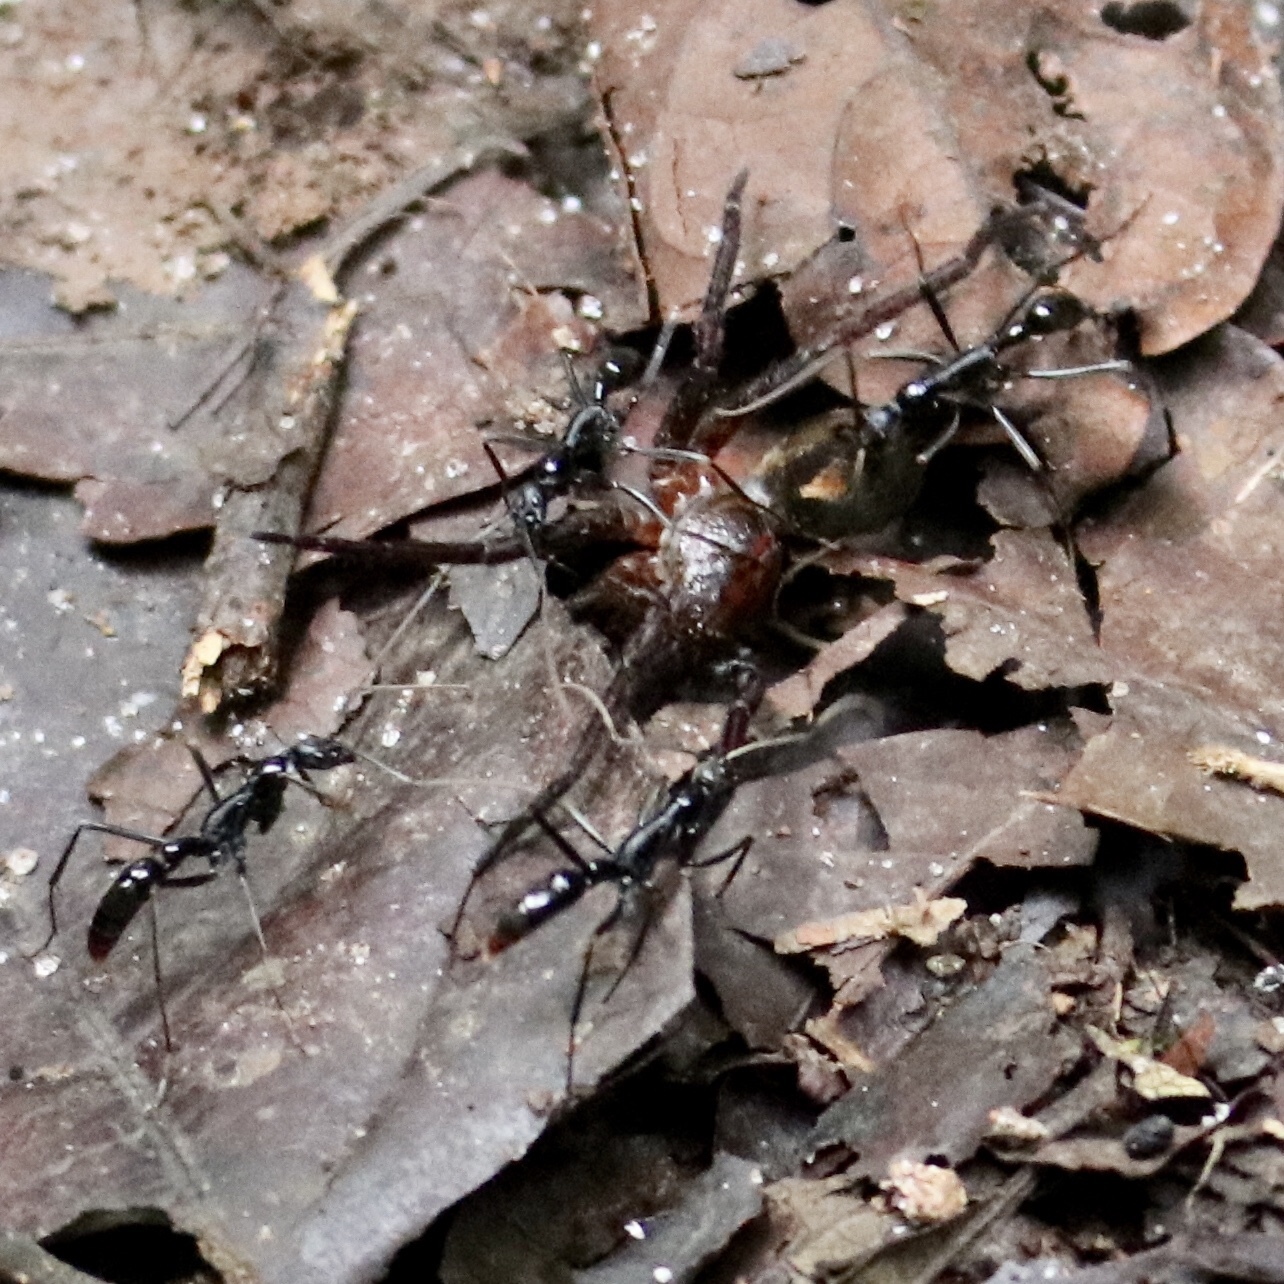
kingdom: Animalia
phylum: Arthropoda
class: Insecta
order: Hymenoptera
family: Formicidae
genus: Leptogenys
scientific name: Leptogenys famelica
